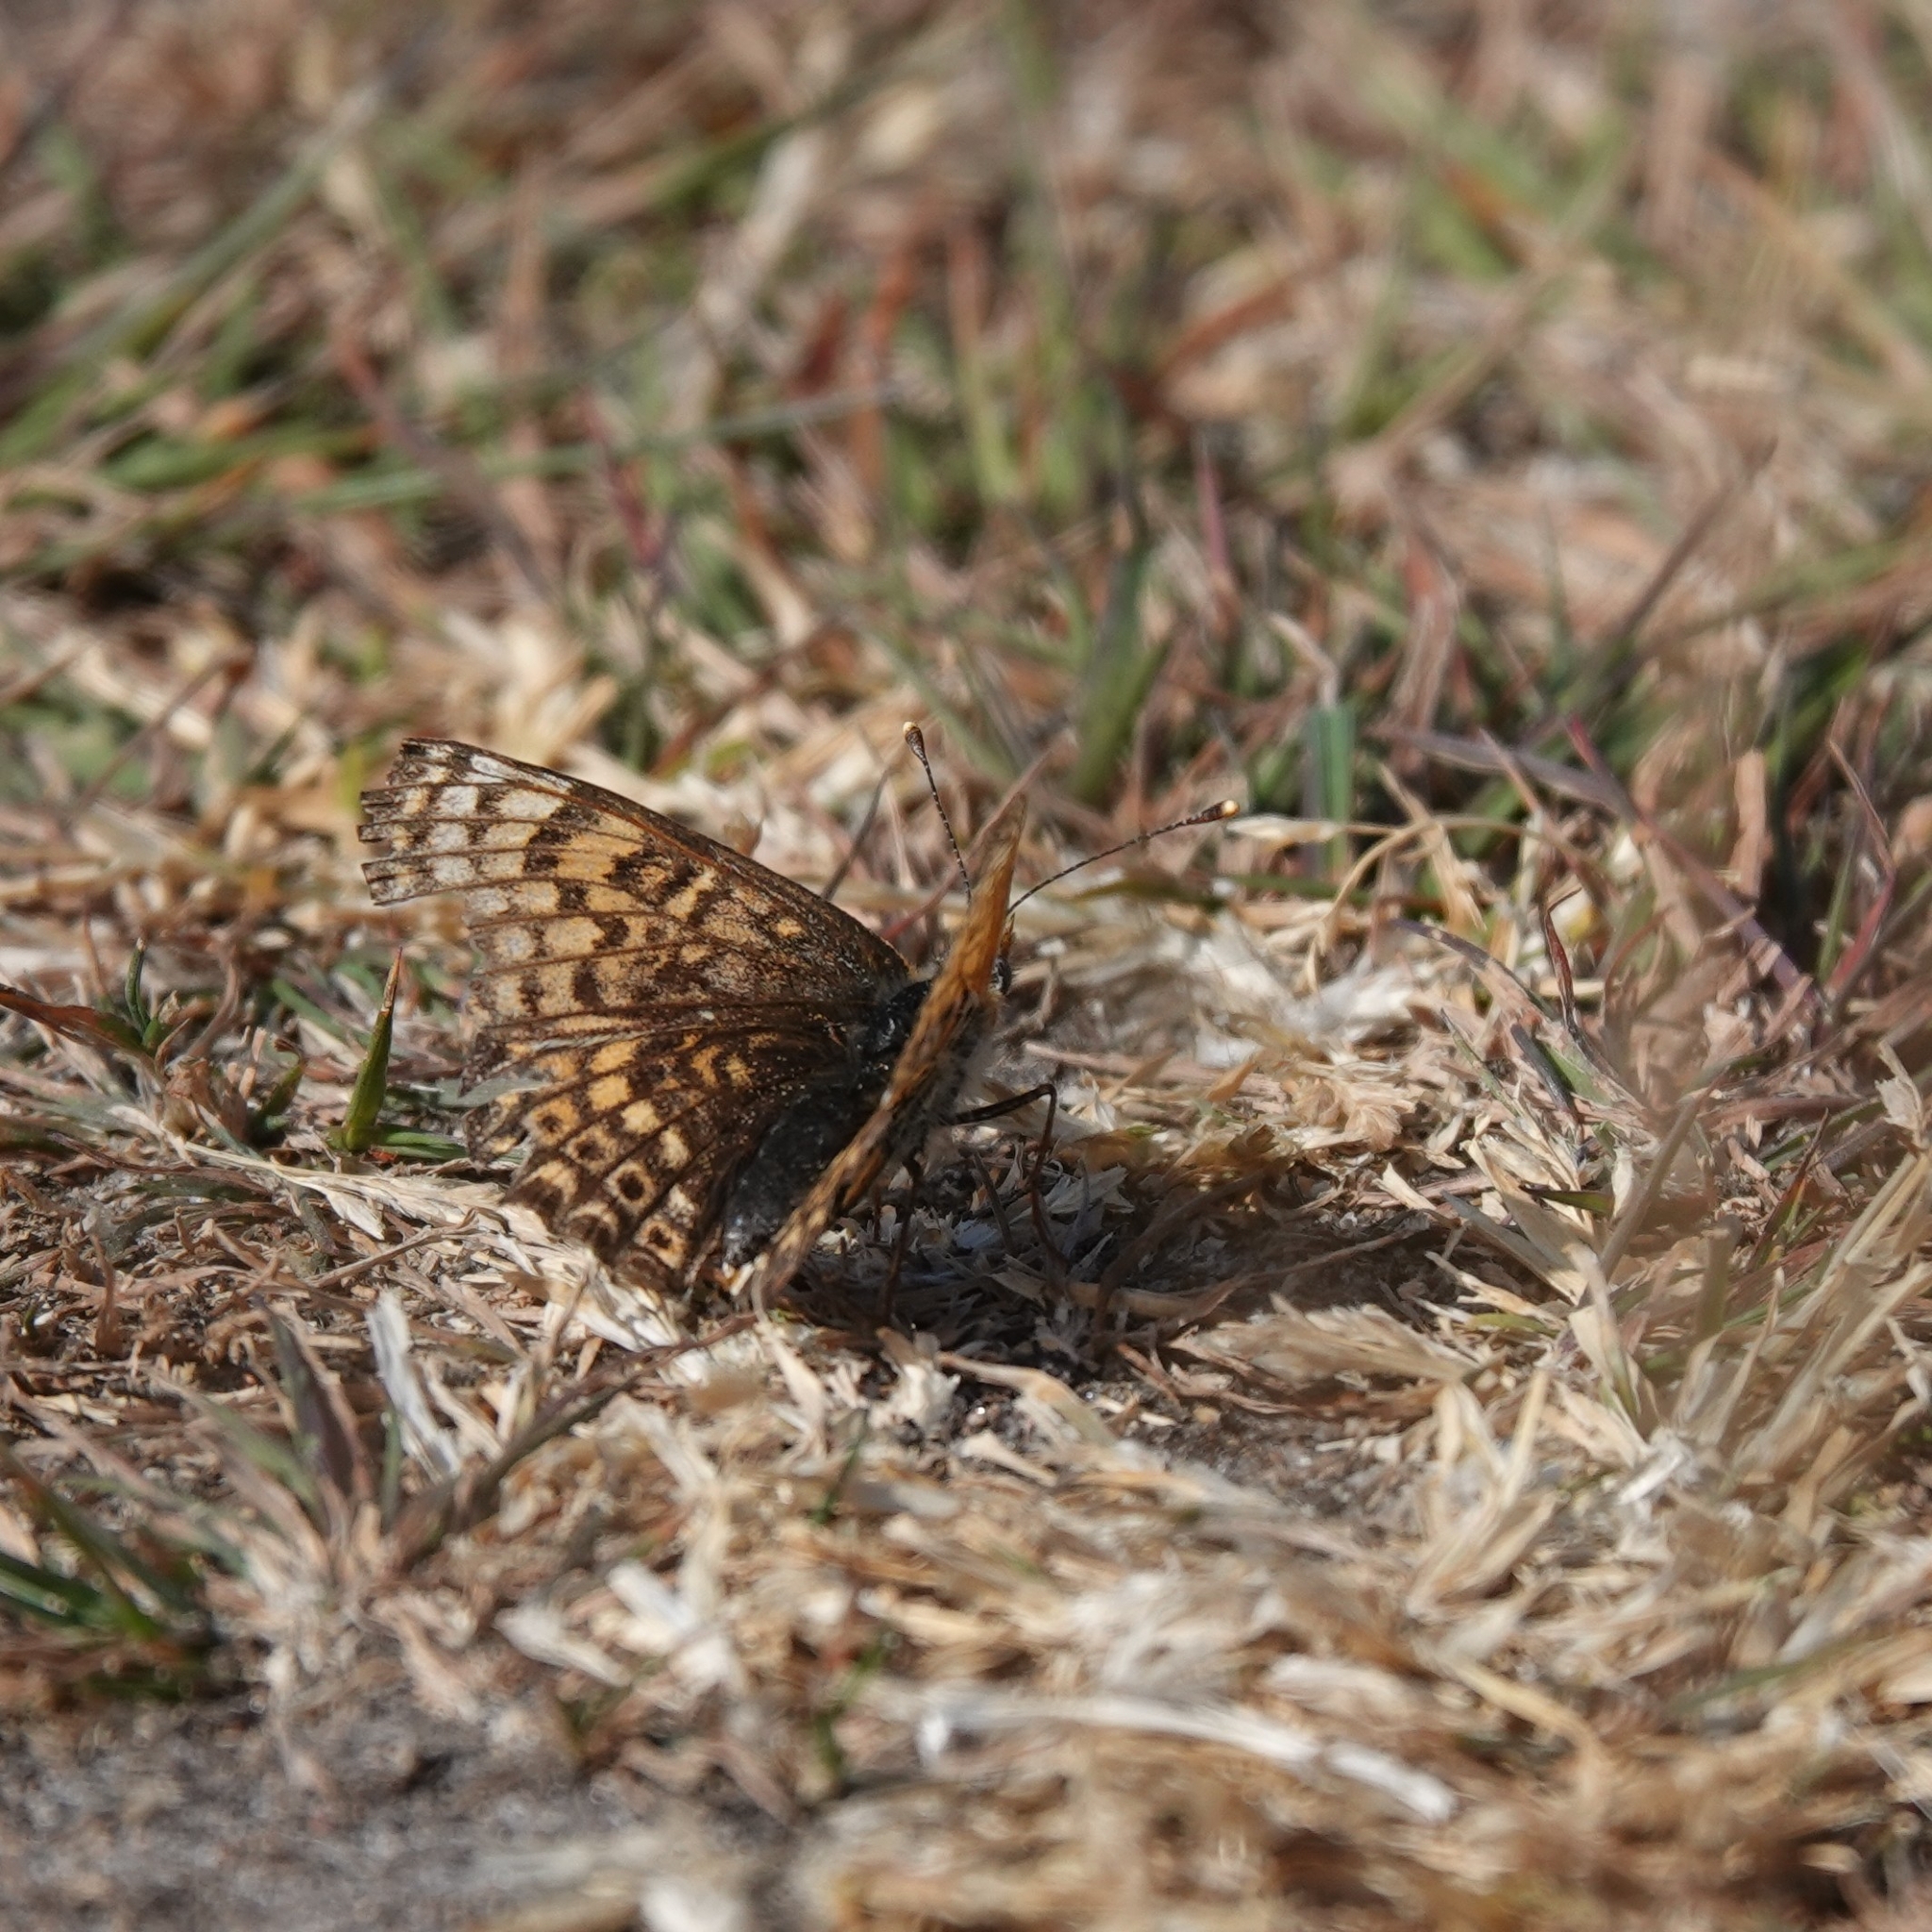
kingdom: Animalia
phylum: Arthropoda
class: Insecta
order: Lepidoptera
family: Nymphalidae
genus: Melitaea
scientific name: Melitaea cinxia
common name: Glanville fritillary
